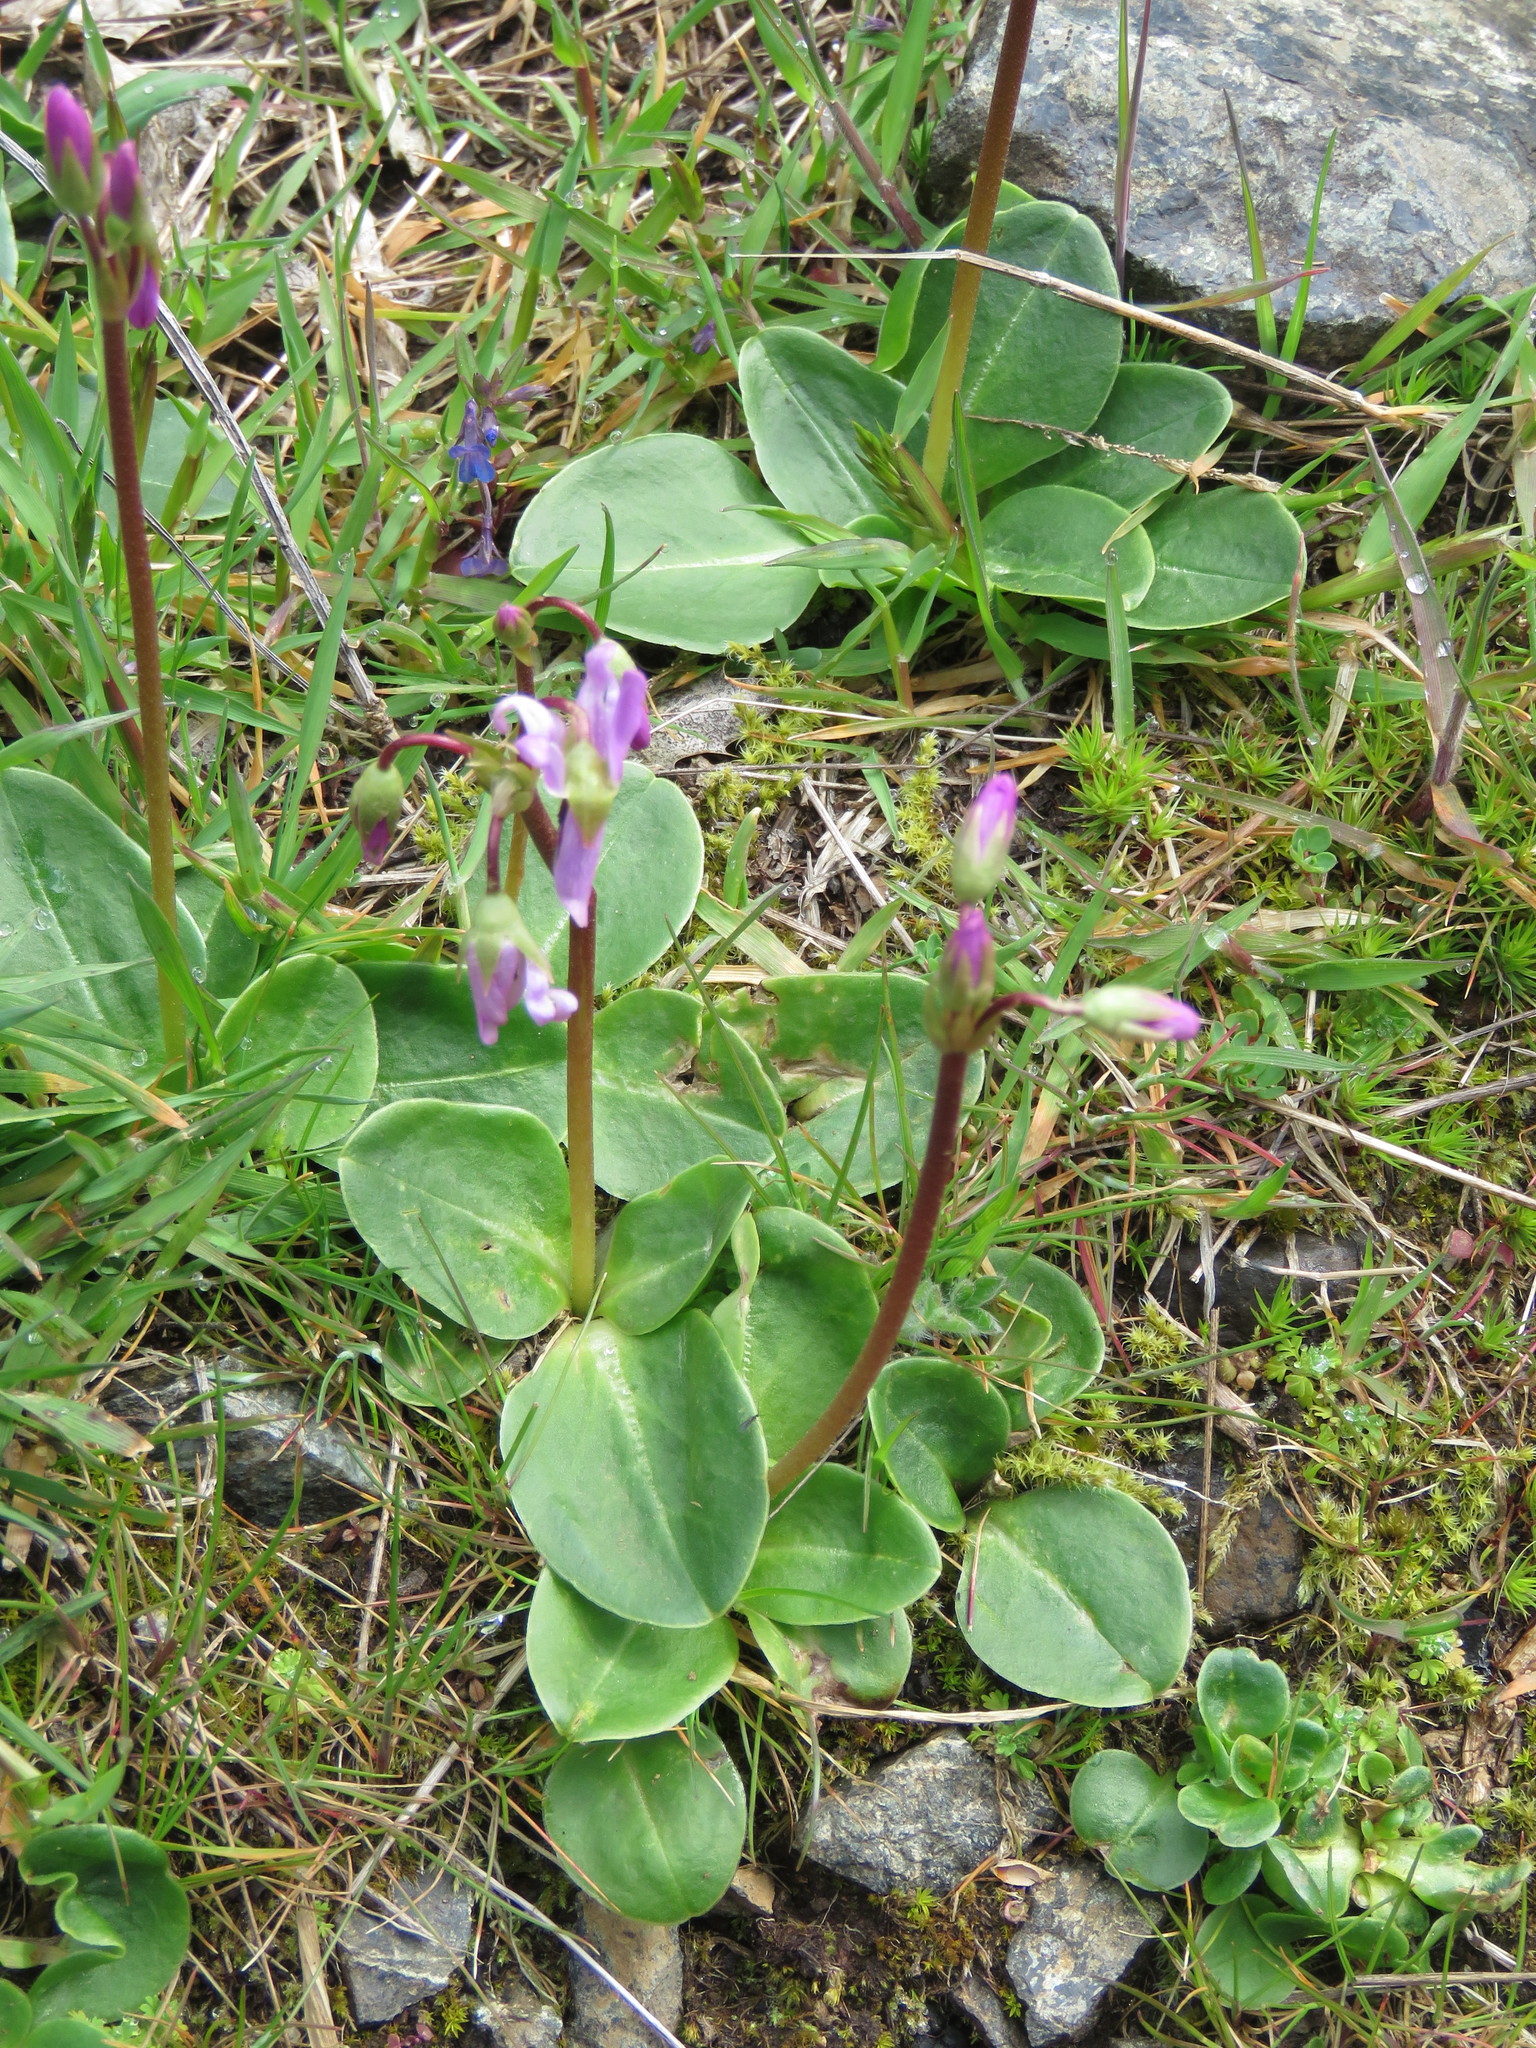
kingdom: Plantae
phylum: Tracheophyta
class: Magnoliopsida
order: Ericales
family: Primulaceae
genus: Dodecatheon
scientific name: Dodecatheon hendersonii
